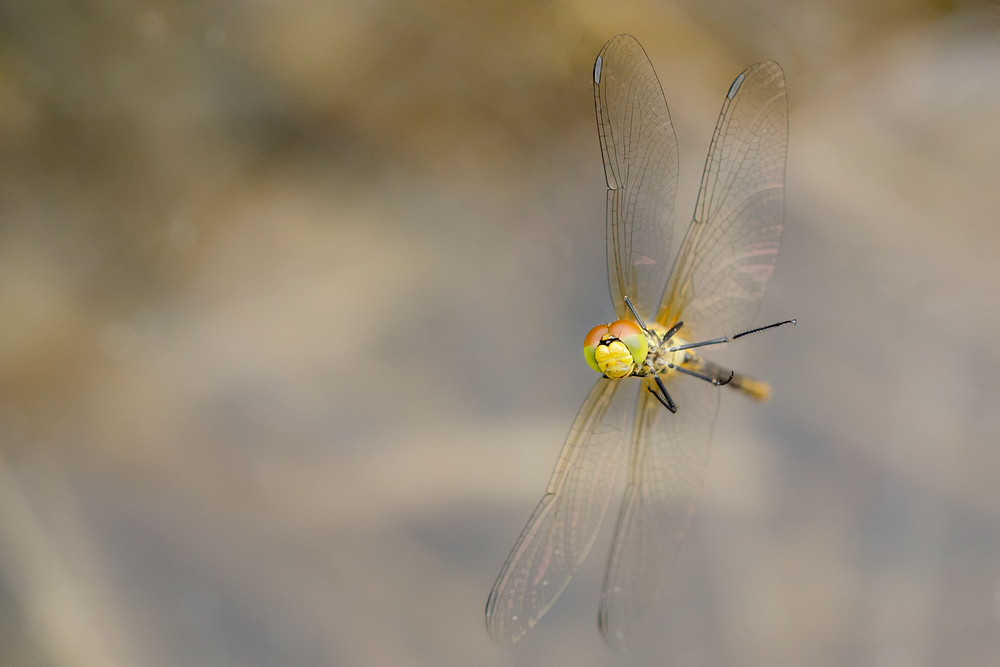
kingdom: Animalia
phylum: Arthropoda
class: Insecta
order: Odonata
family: Libellulidae
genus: Sympetrum
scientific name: Sympetrum sanguineum
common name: Ruddy darter
